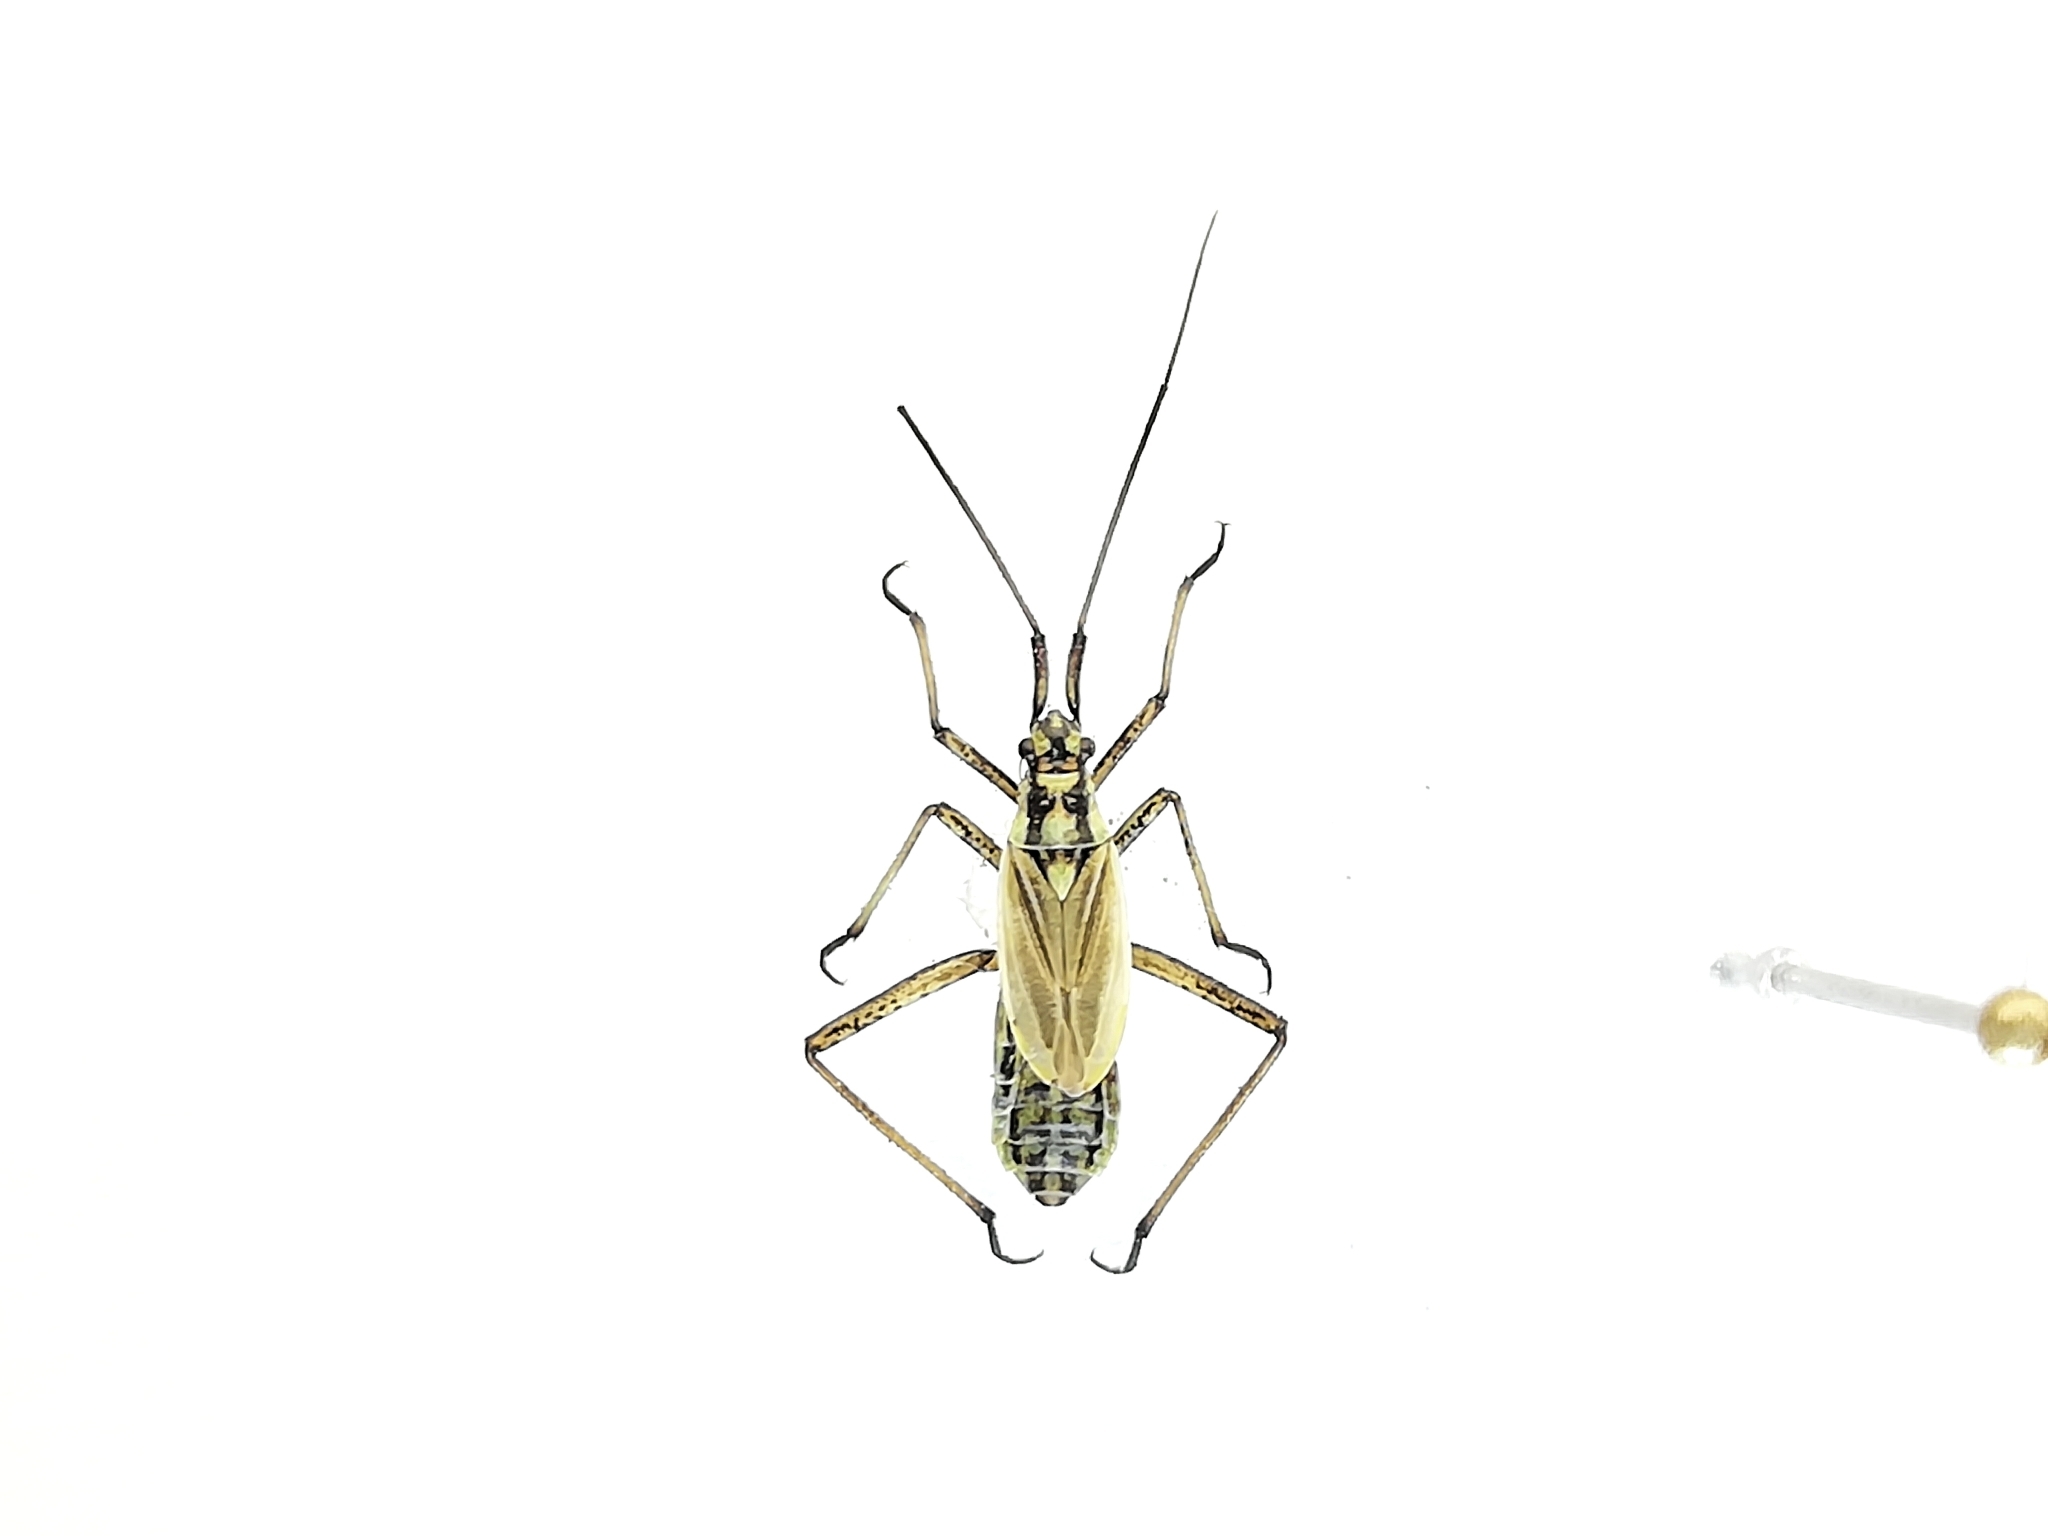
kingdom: Animalia
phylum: Arthropoda
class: Insecta
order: Hemiptera
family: Miridae
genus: Leptopterna
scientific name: Leptopterna dolabrata
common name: Meadow plant bug
